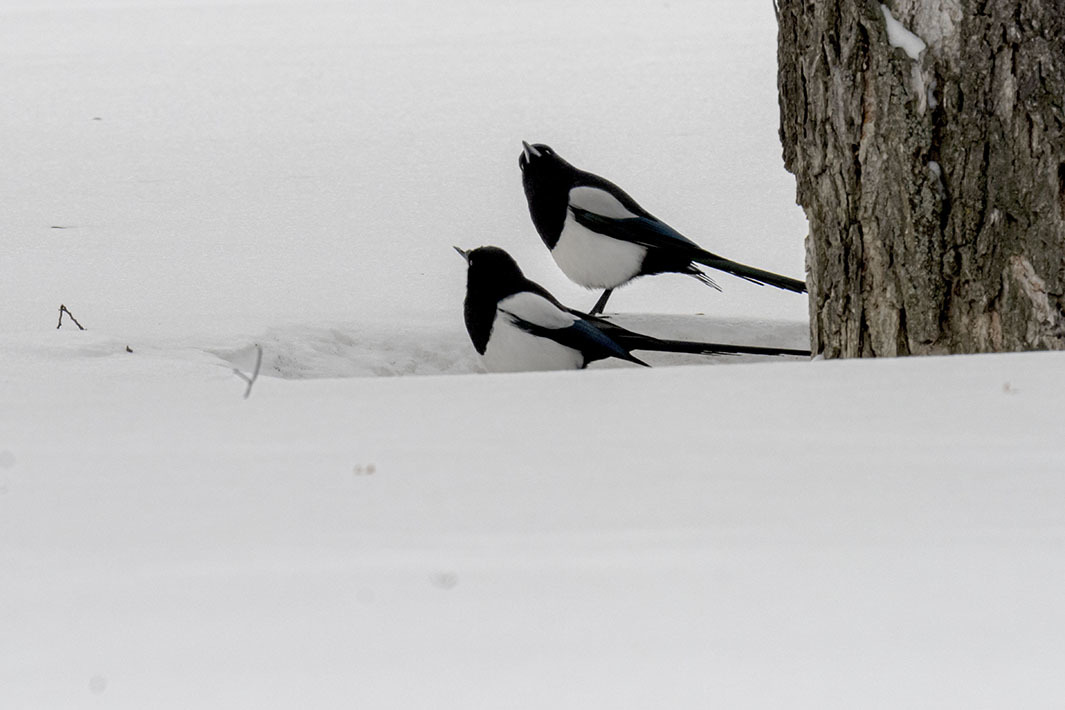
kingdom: Animalia
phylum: Chordata
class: Aves
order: Passeriformes
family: Corvidae
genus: Pica
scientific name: Pica hudsonia
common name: Black-billed magpie
